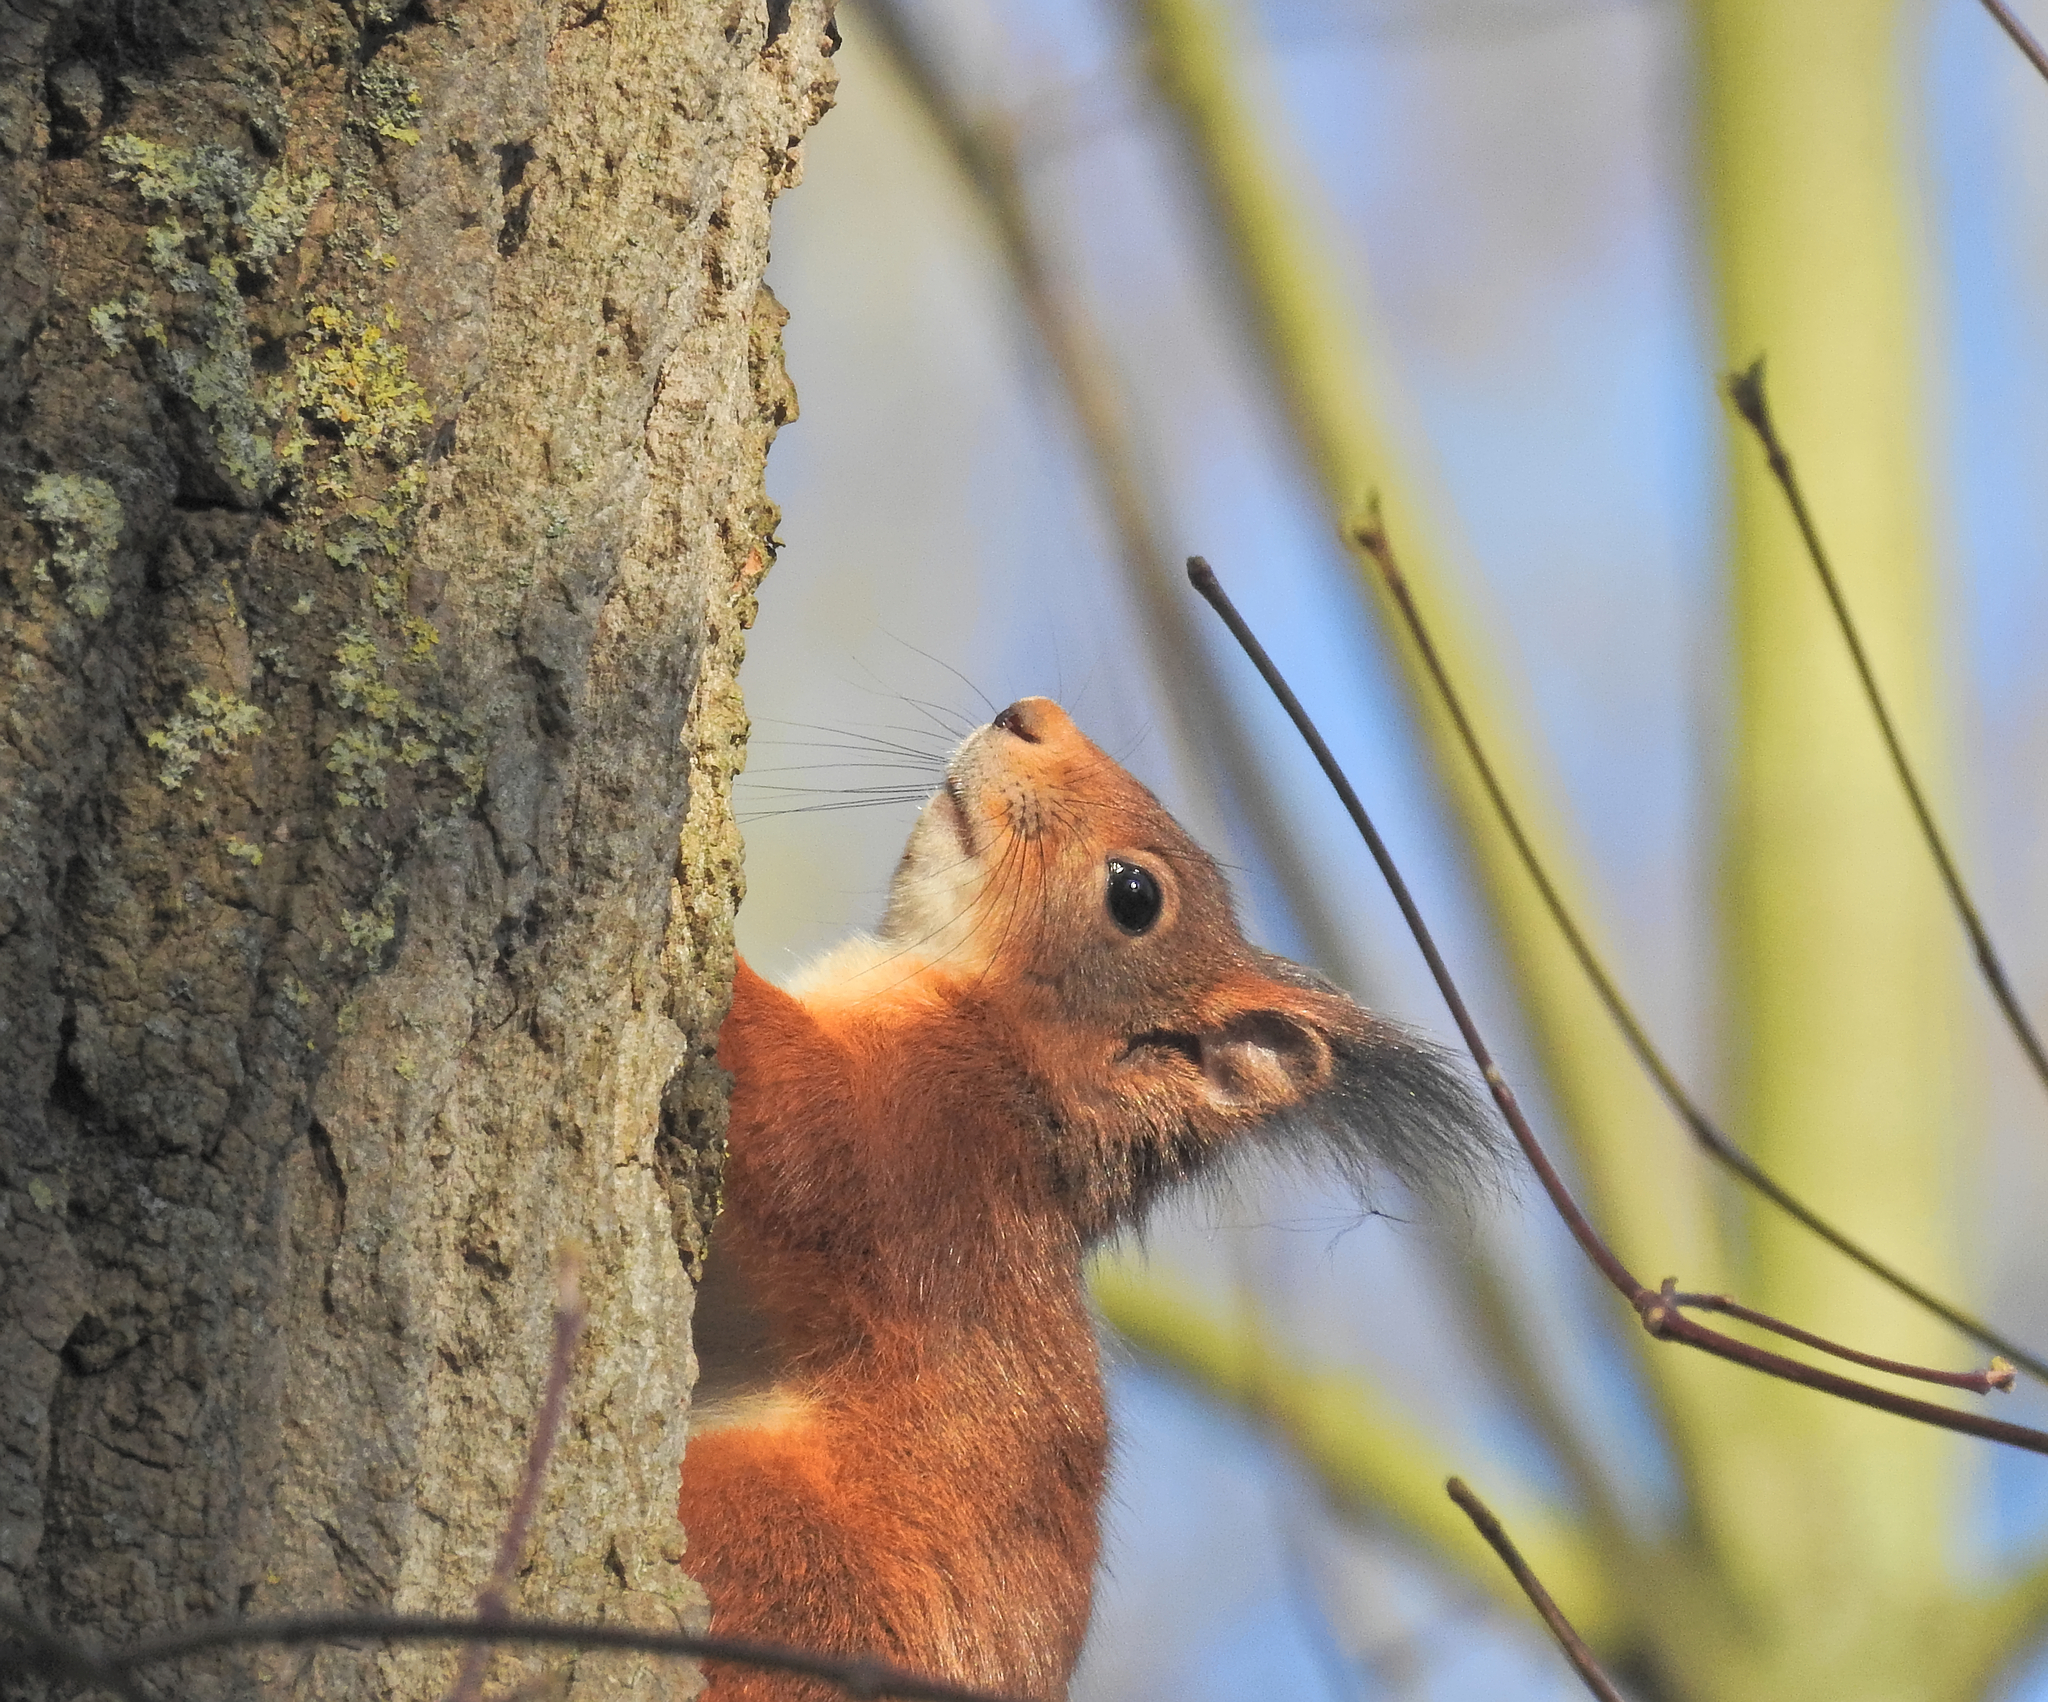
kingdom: Animalia
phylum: Chordata
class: Mammalia
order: Rodentia
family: Sciuridae
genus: Sciurus
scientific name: Sciurus vulgaris
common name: Eurasian red squirrel
